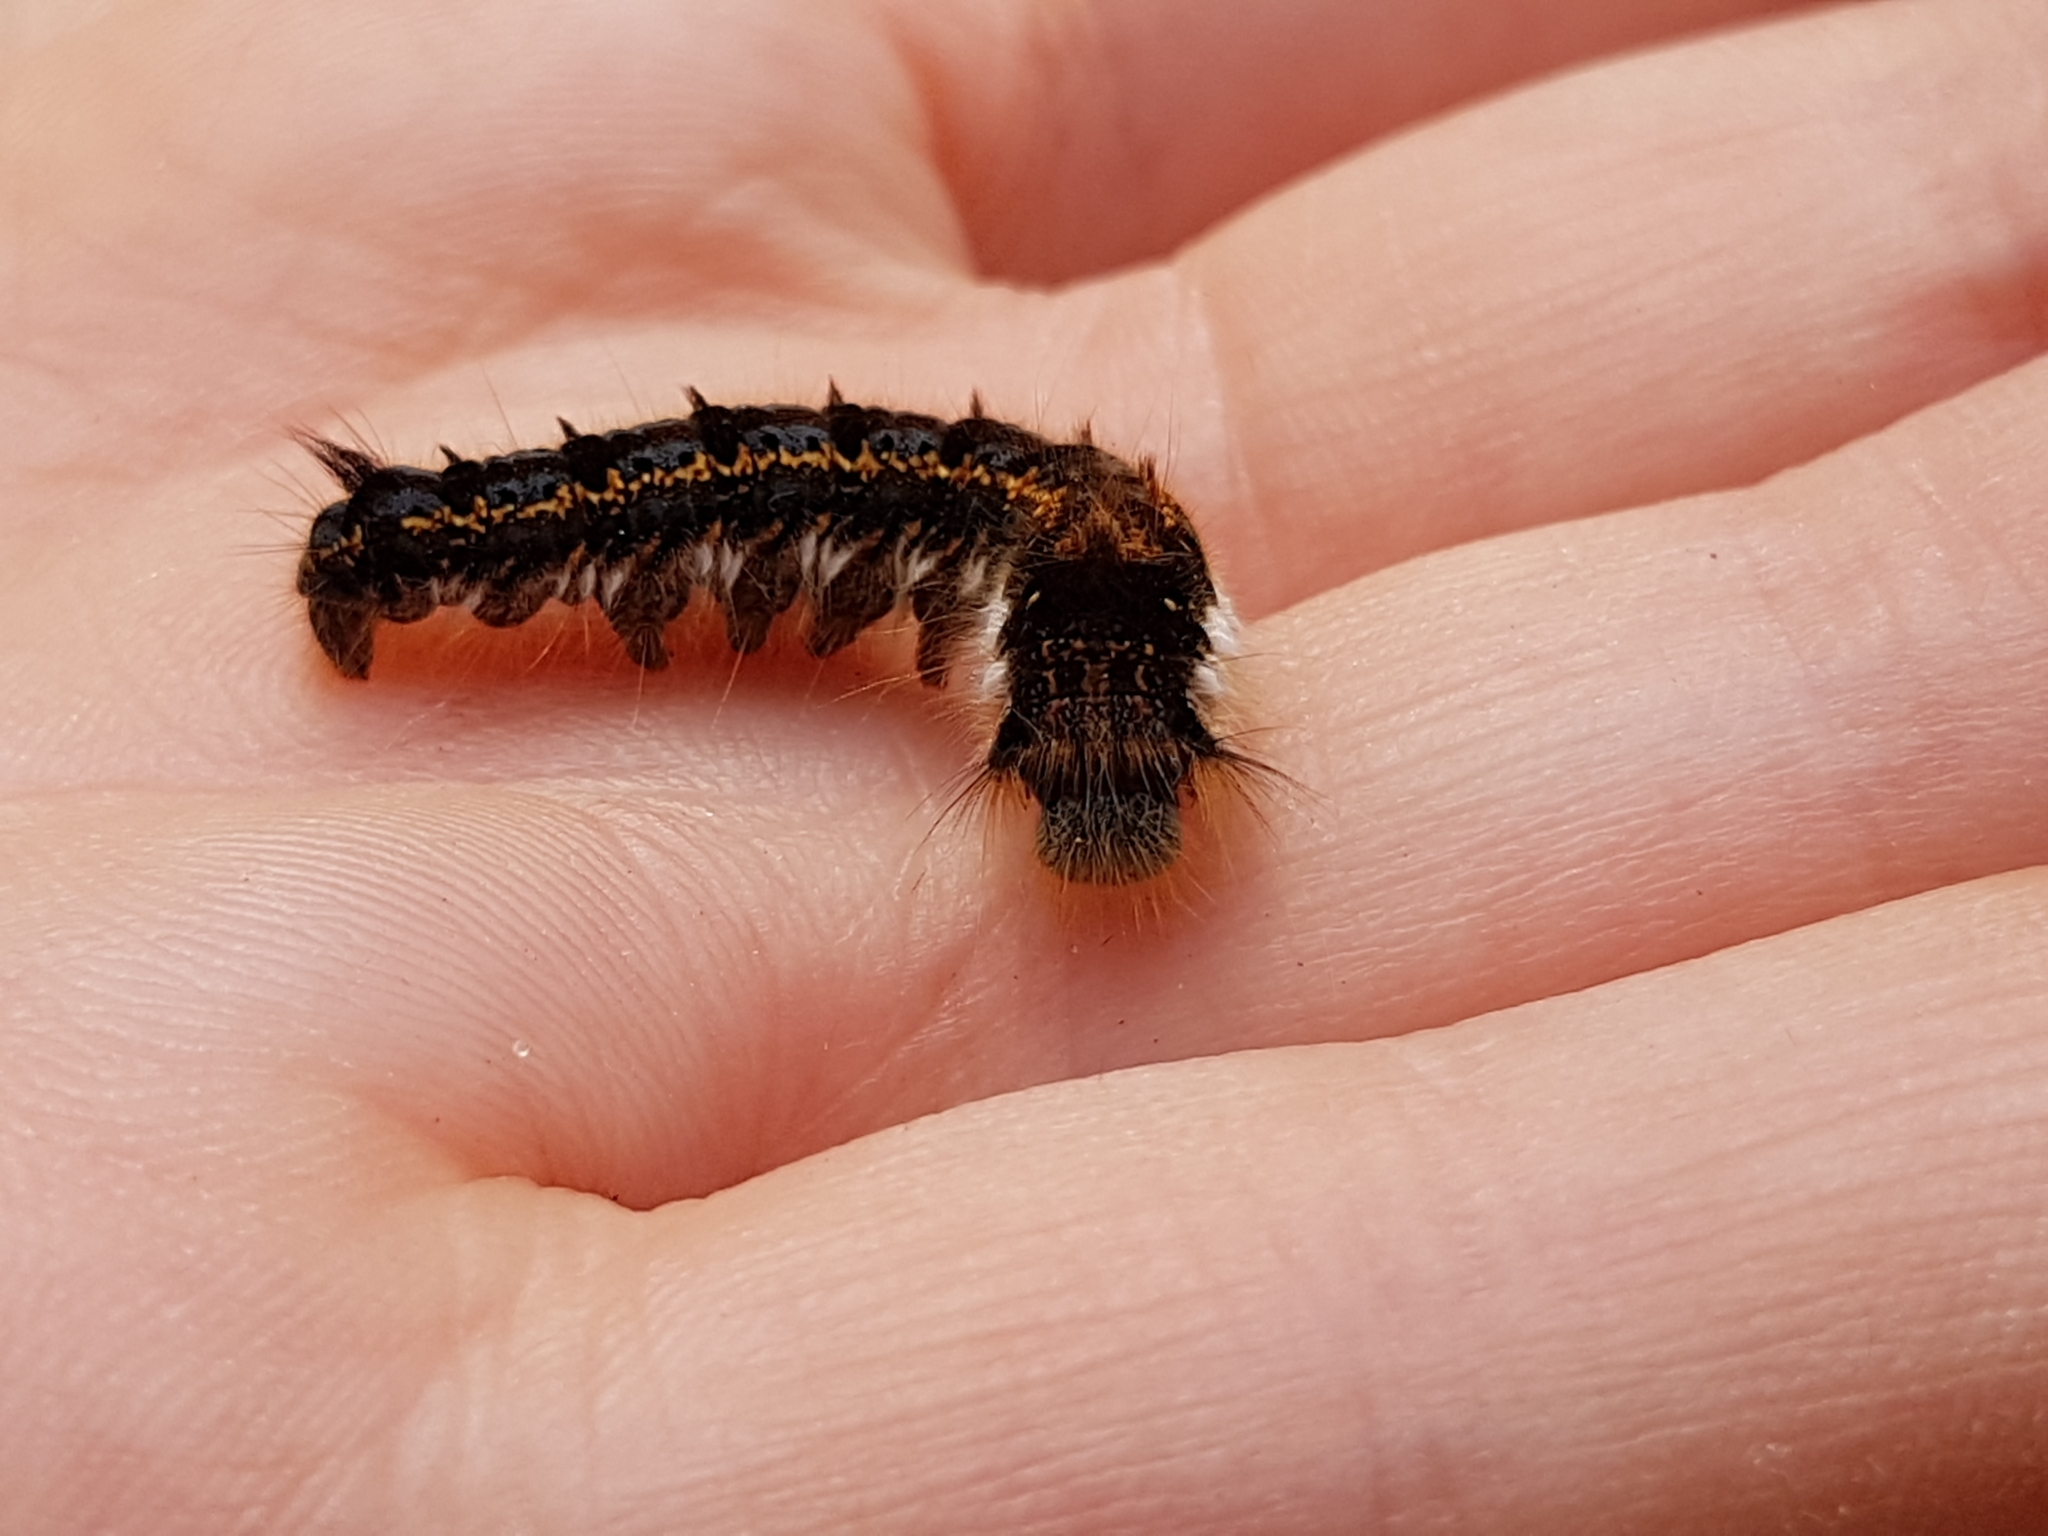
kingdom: Animalia
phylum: Arthropoda
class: Insecta
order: Lepidoptera
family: Lasiocampidae
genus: Euthrix
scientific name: Euthrix potatoria
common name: Drinker
